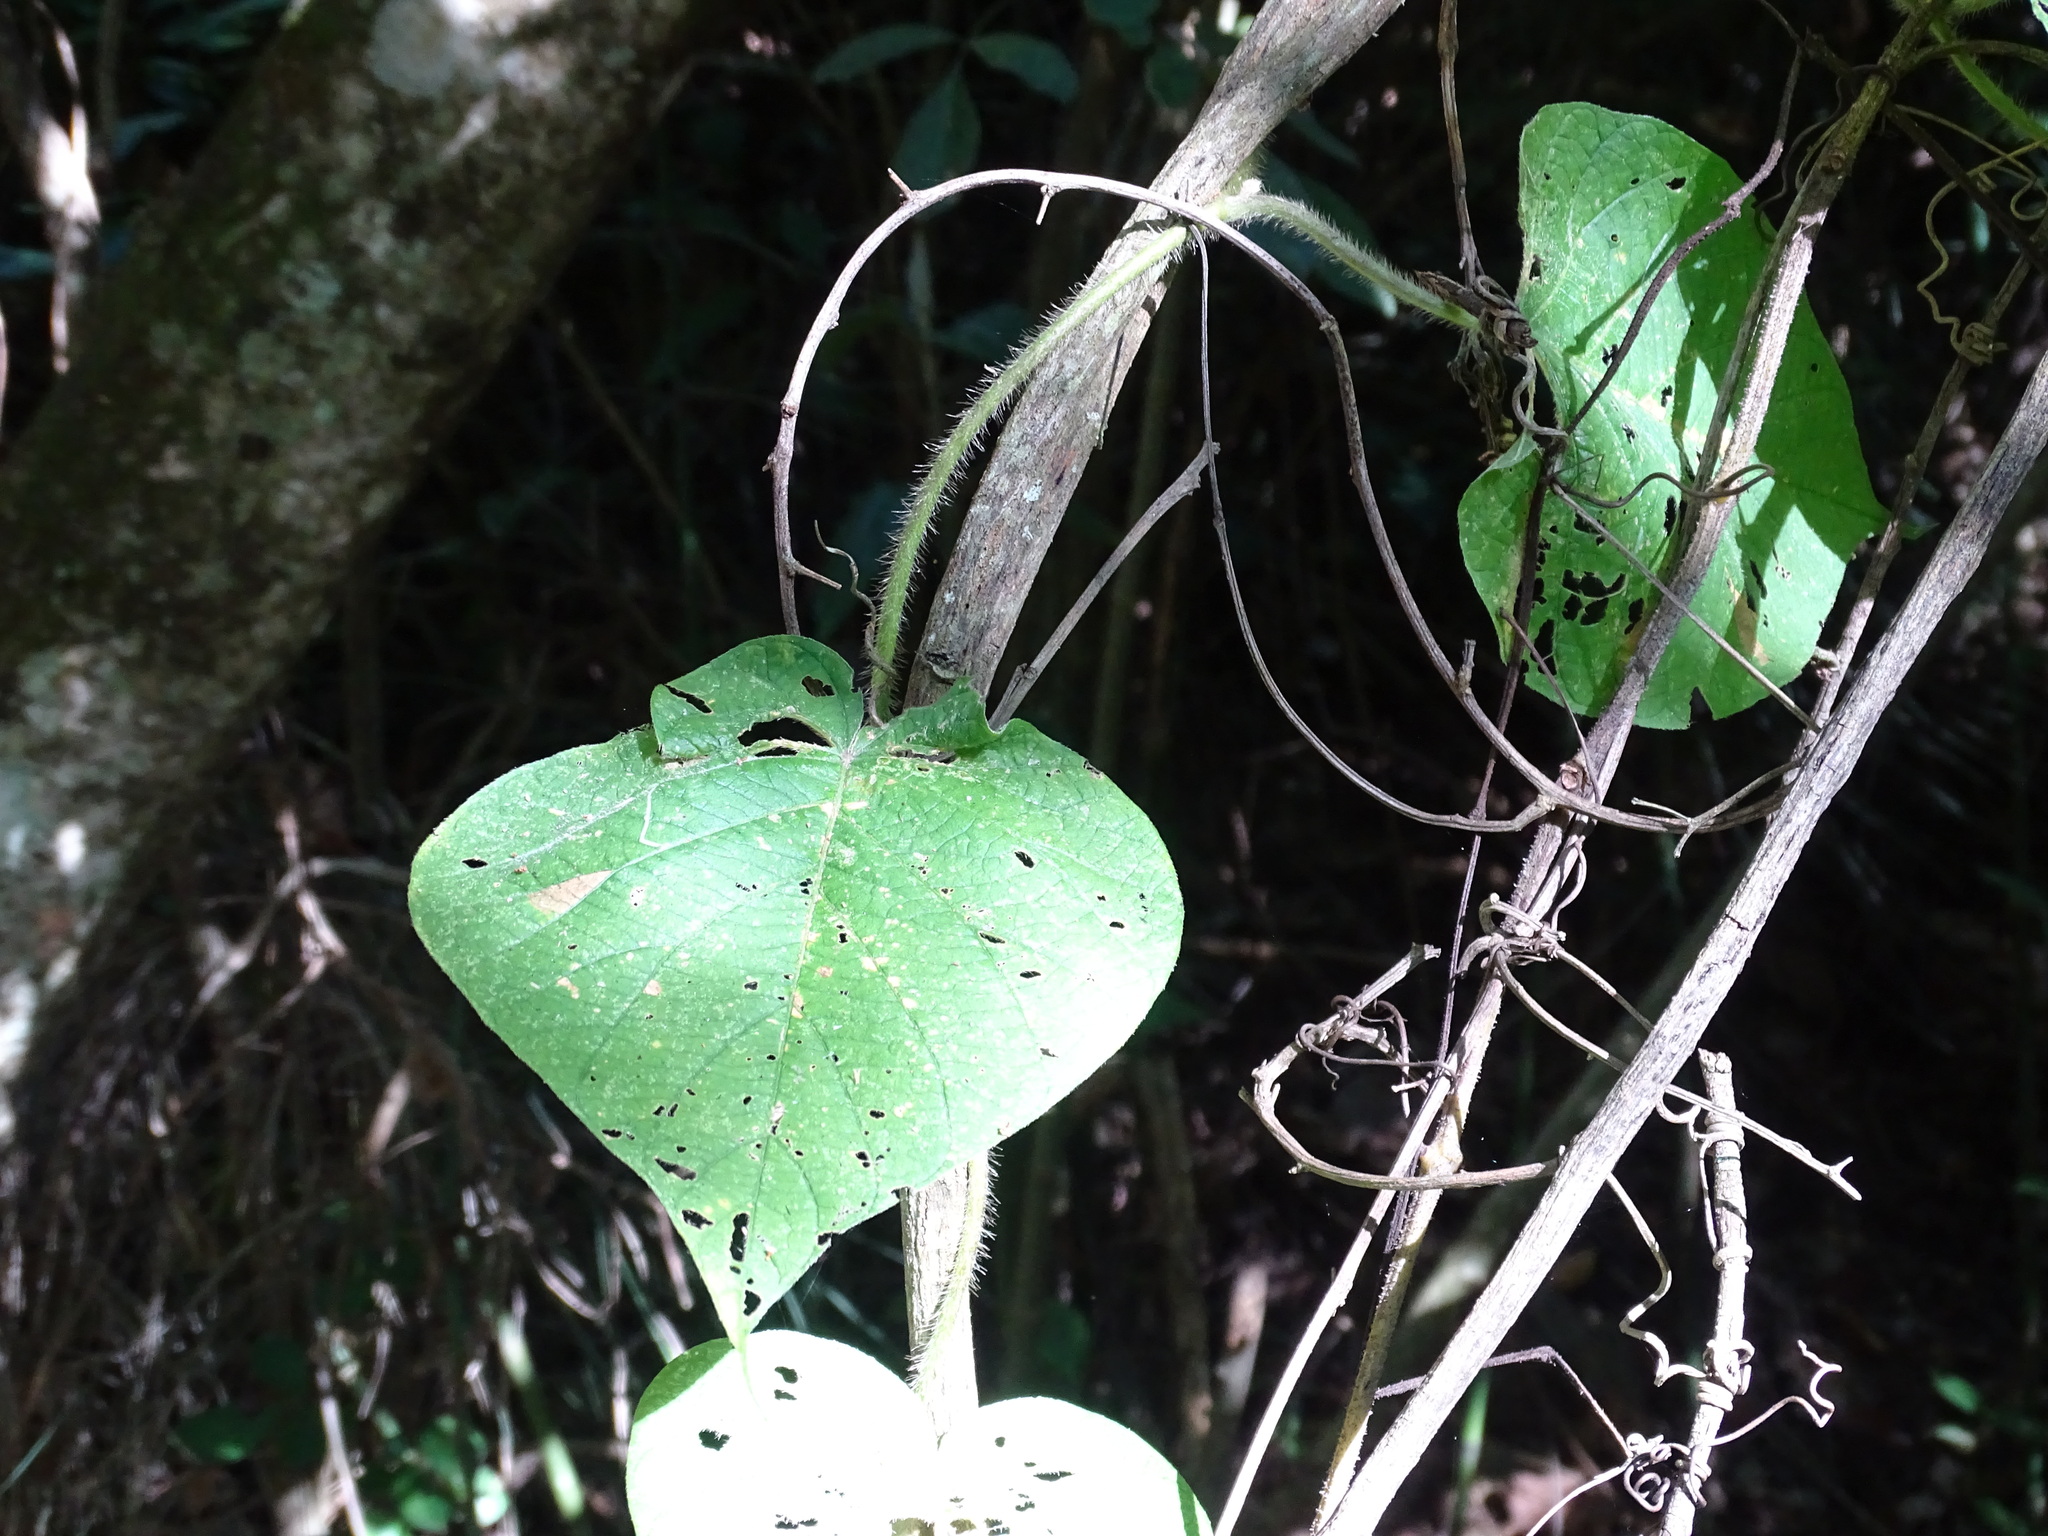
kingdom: Plantae
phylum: Tracheophyta
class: Magnoliopsida
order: Solanales
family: Convolvulaceae
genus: Ipomoea
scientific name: Ipomoea villifera
